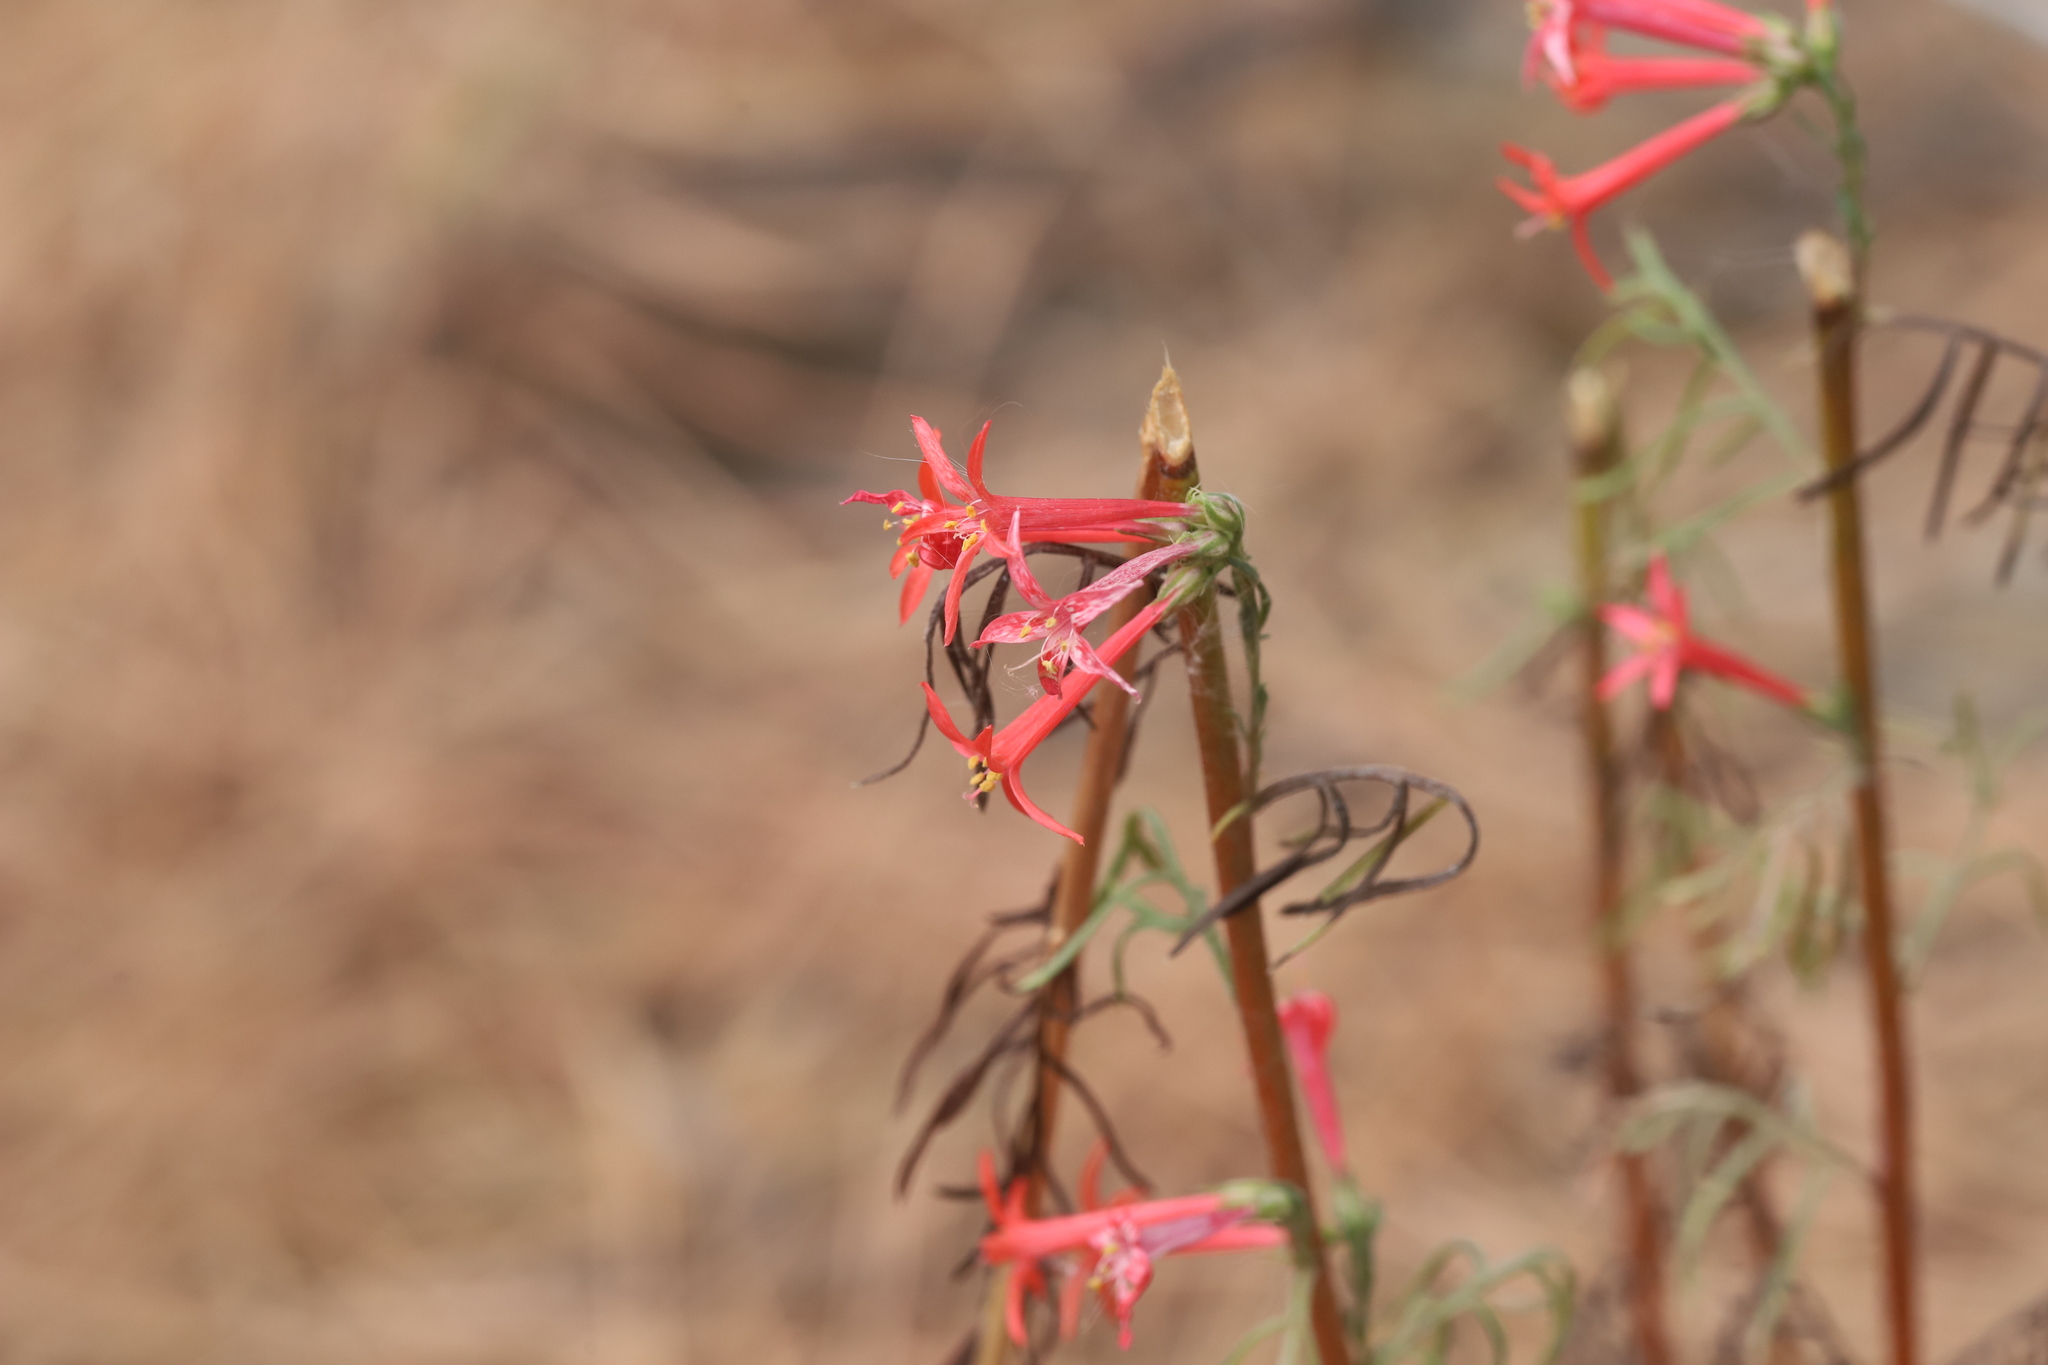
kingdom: Plantae
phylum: Tracheophyta
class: Magnoliopsida
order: Ericales
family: Polemoniaceae
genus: Ipomopsis
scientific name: Ipomopsis aggregata
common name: Scarlet gilia
